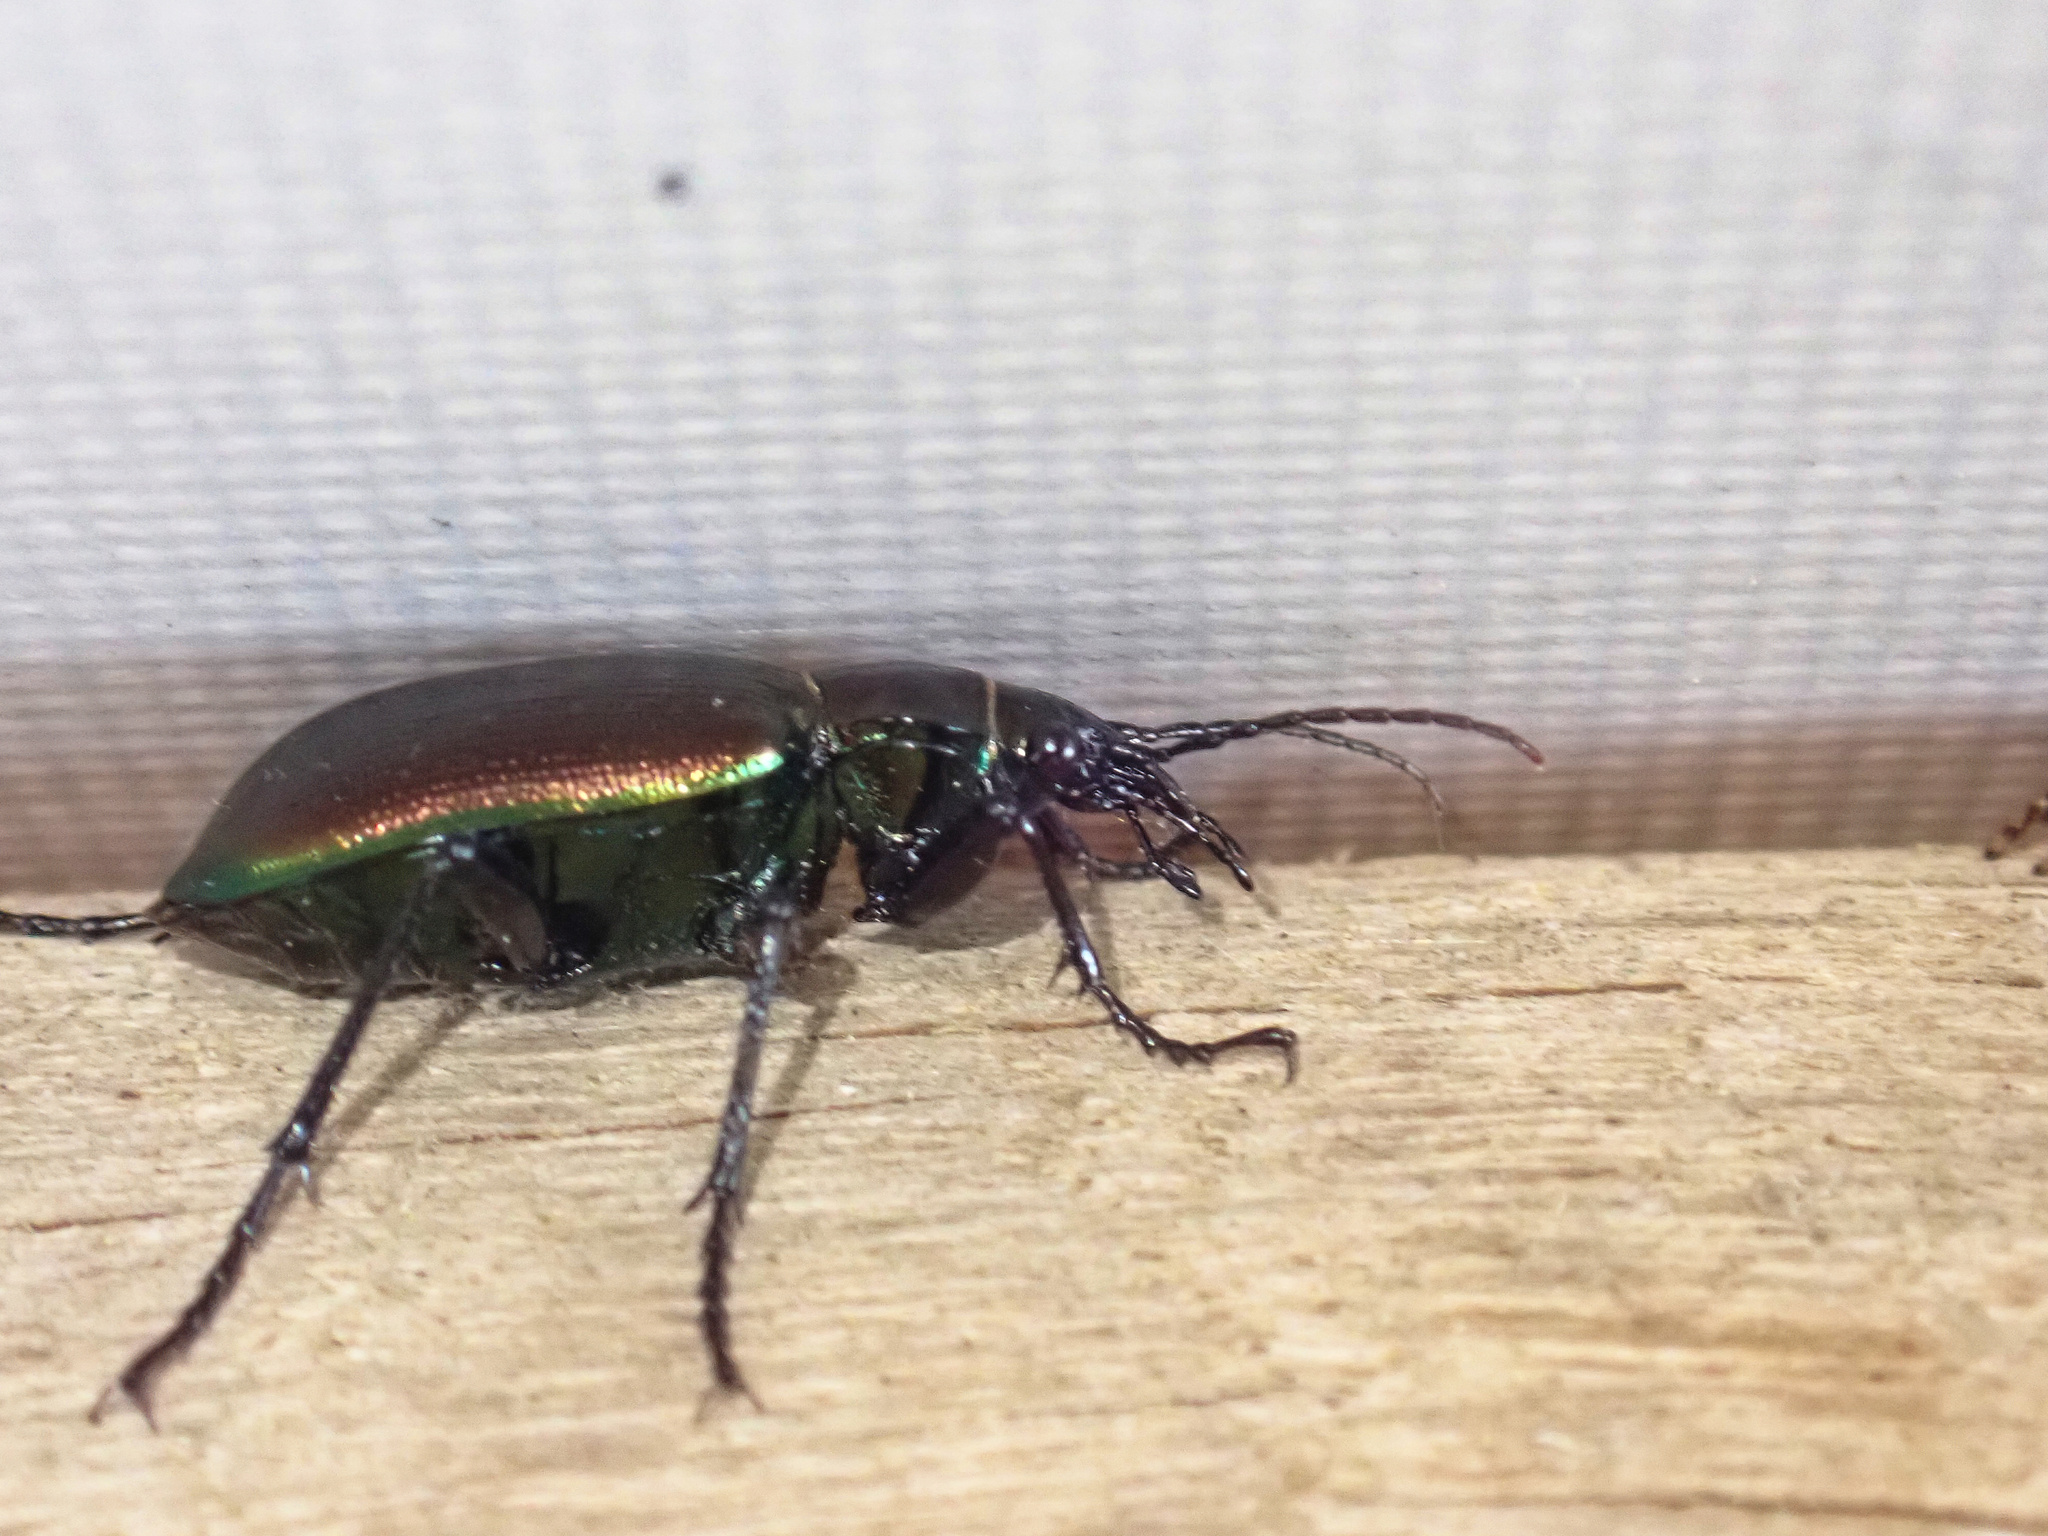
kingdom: Animalia
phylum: Arthropoda
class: Insecta
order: Coleoptera
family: Carabidae
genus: Calosoma
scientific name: Calosoma sycophanta
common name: Forest caterpillar hunter
